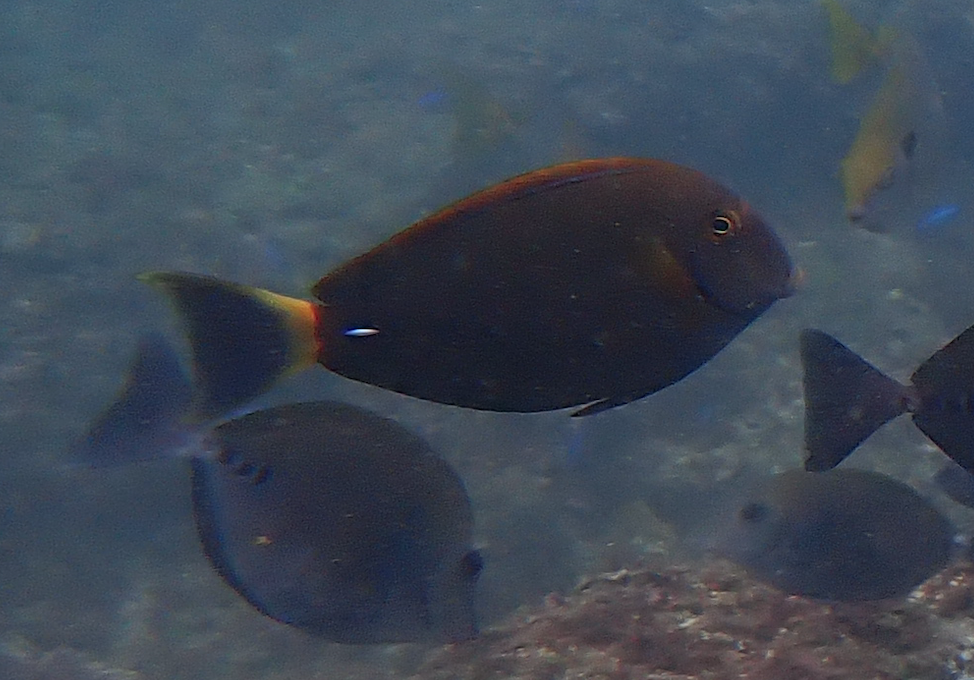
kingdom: Animalia
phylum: Chordata
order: Perciformes
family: Acanthuridae
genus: Acanthurus
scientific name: Acanthurus dussumieri
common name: Dussumier's surgeonfish
